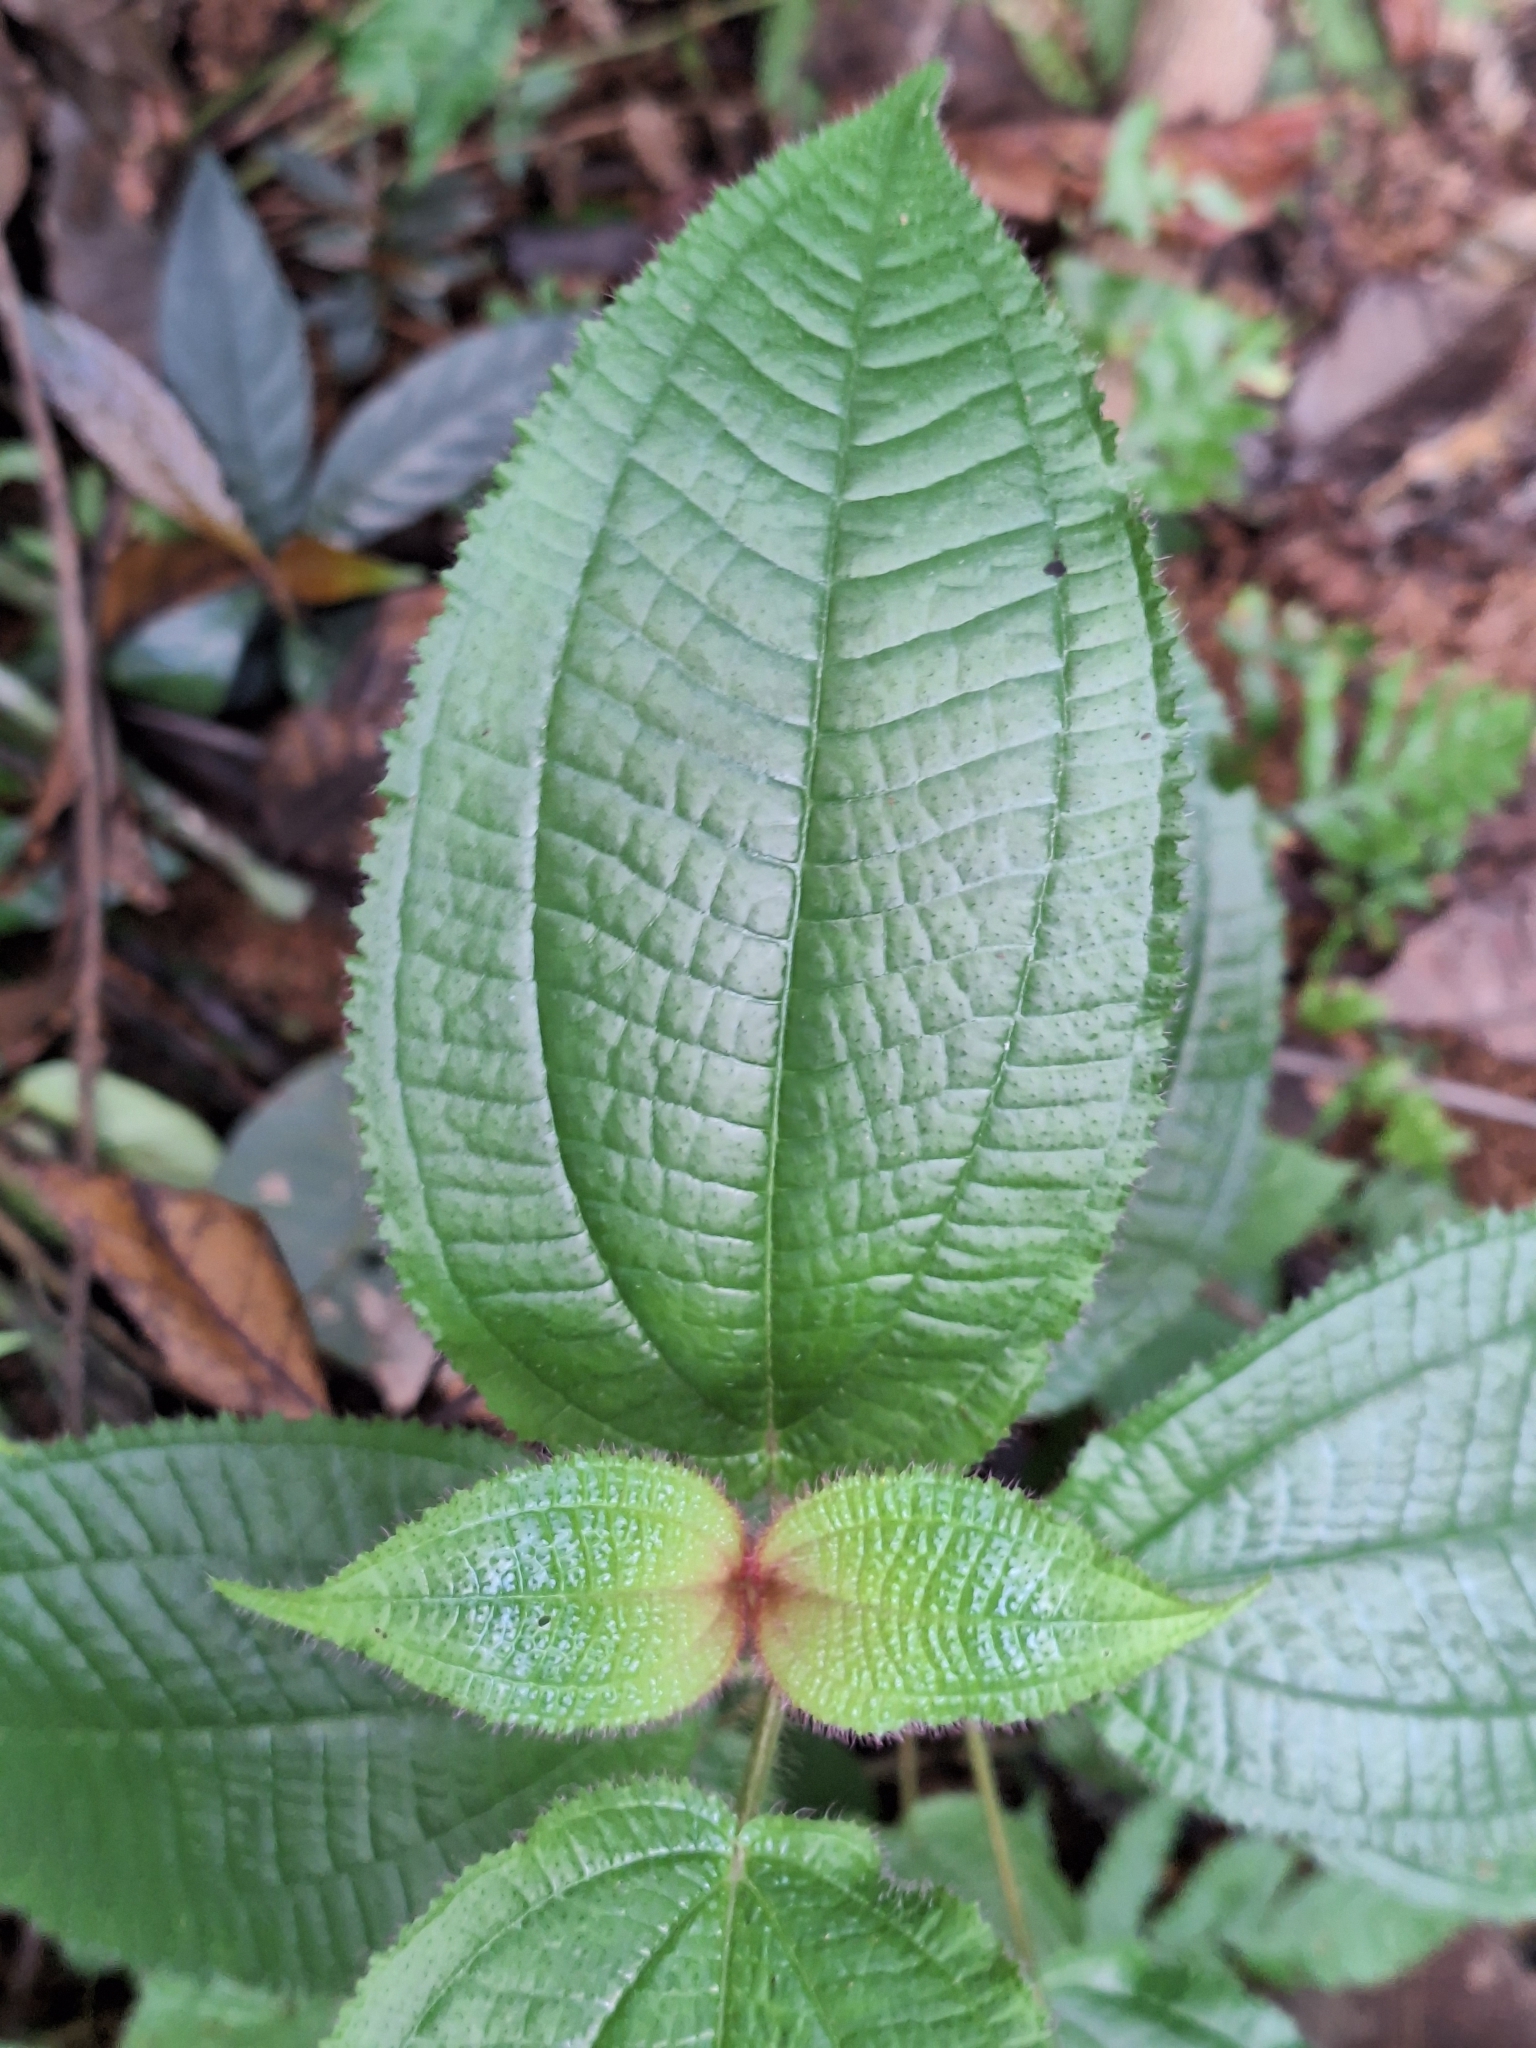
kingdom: Plantae
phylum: Tracheophyta
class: Magnoliopsida
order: Myrtales
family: Melastomataceae
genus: Miconia
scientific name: Miconia crenata
